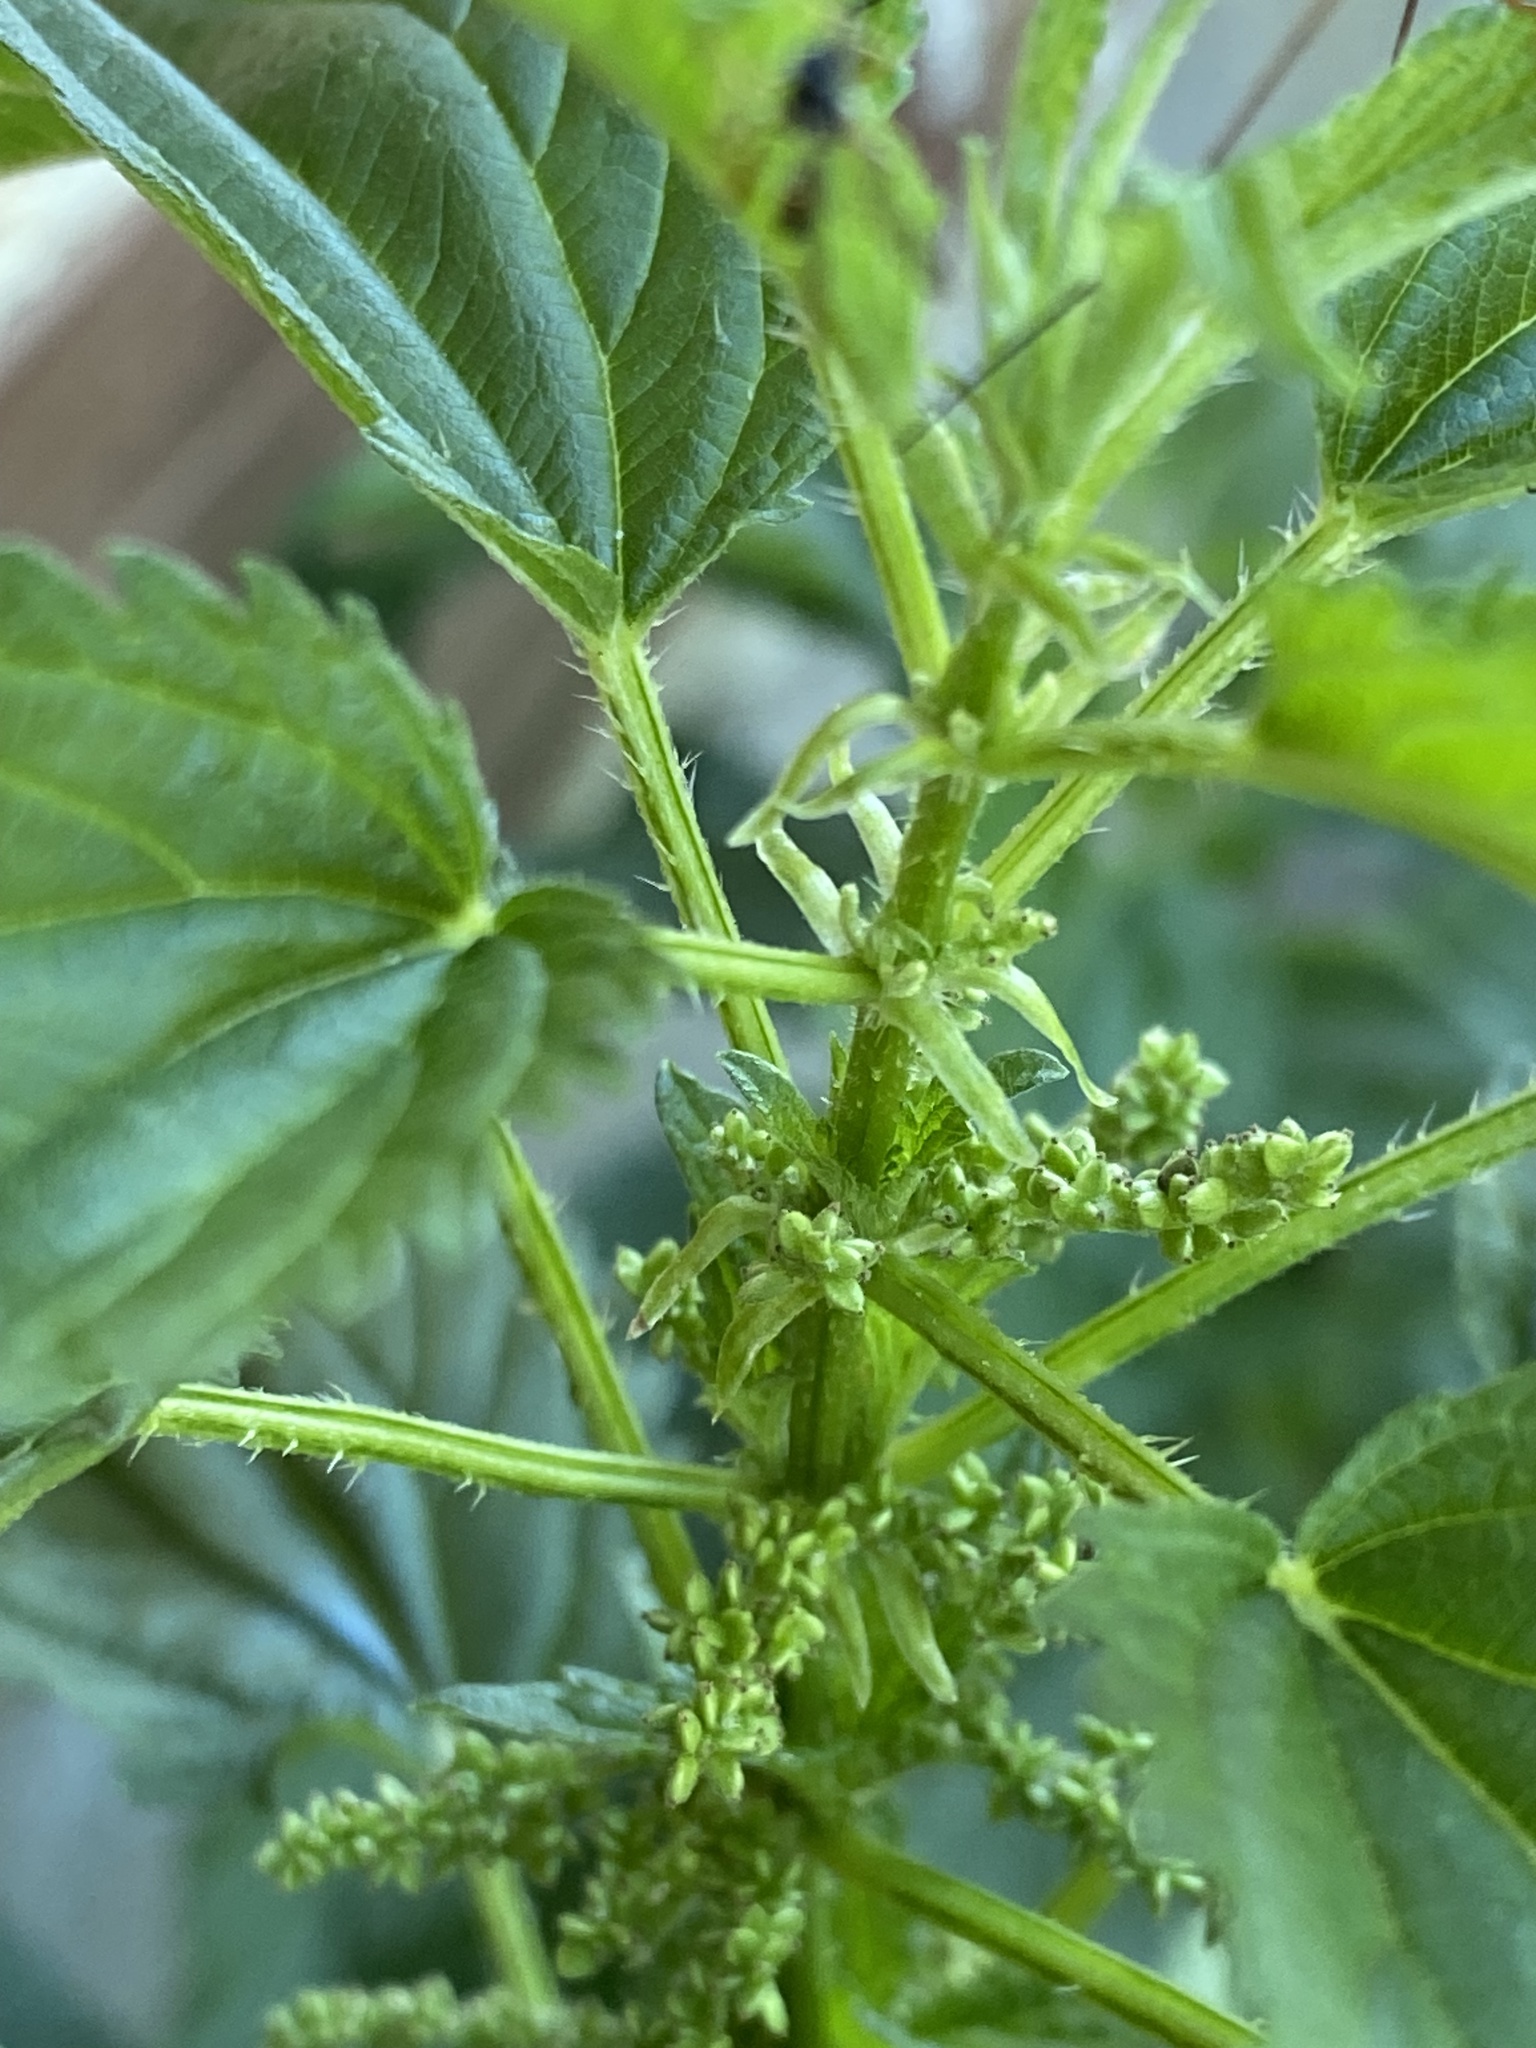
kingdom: Plantae
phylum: Tracheophyta
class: Magnoliopsida
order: Rosales
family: Urticaceae
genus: Urtica
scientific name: Urtica gracilis
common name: Slender stinging nettle
